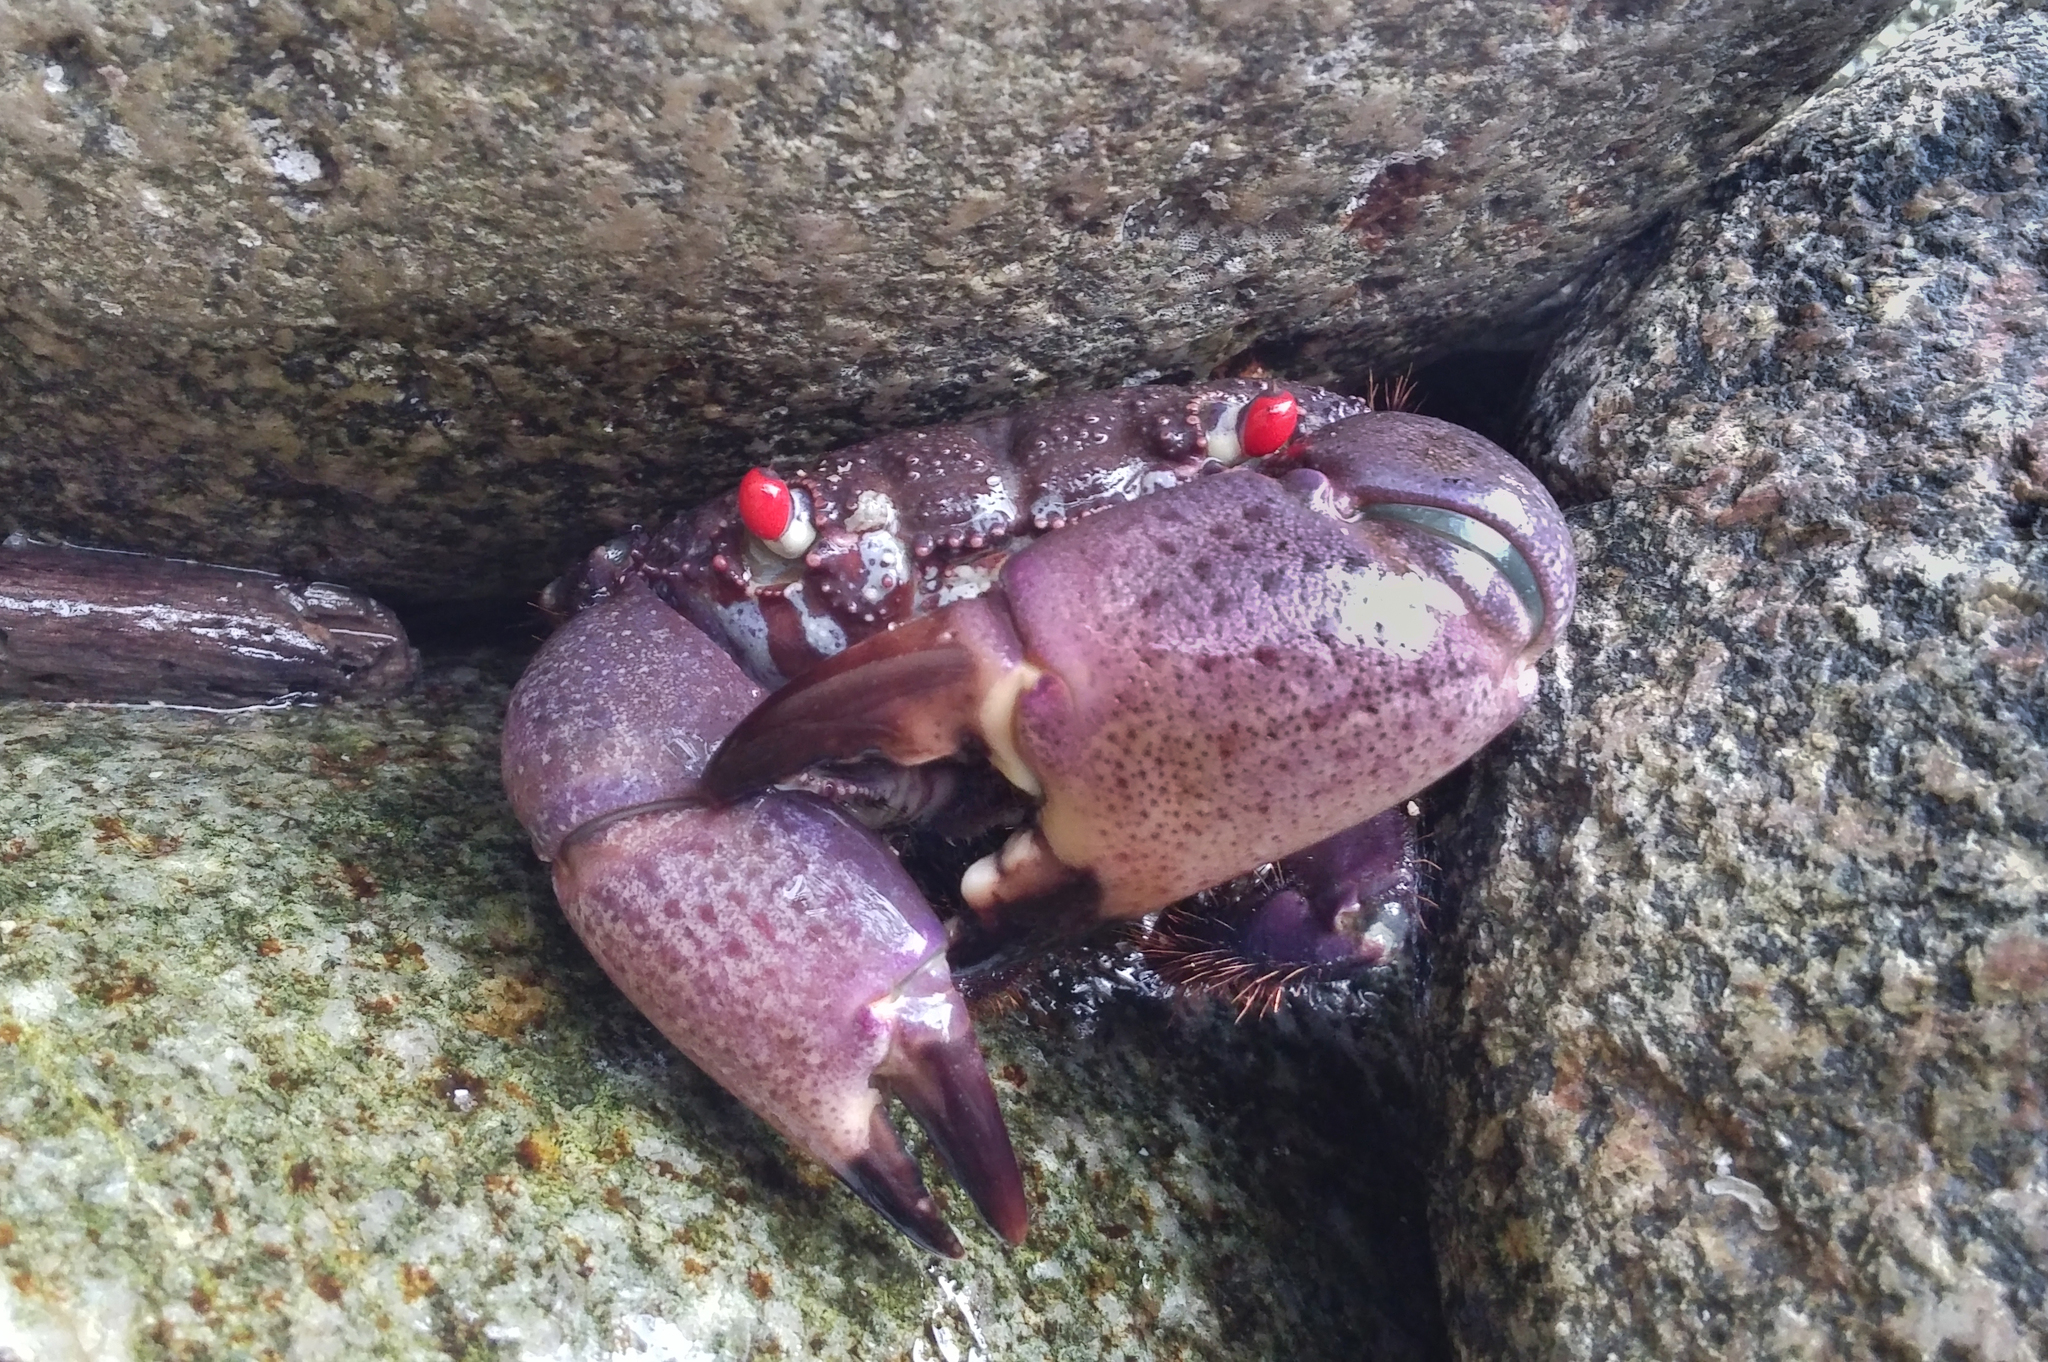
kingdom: Animalia
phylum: Arthropoda
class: Malacostraca
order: Decapoda
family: Eriphiidae
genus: Eriphia
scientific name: Eriphia sebana
